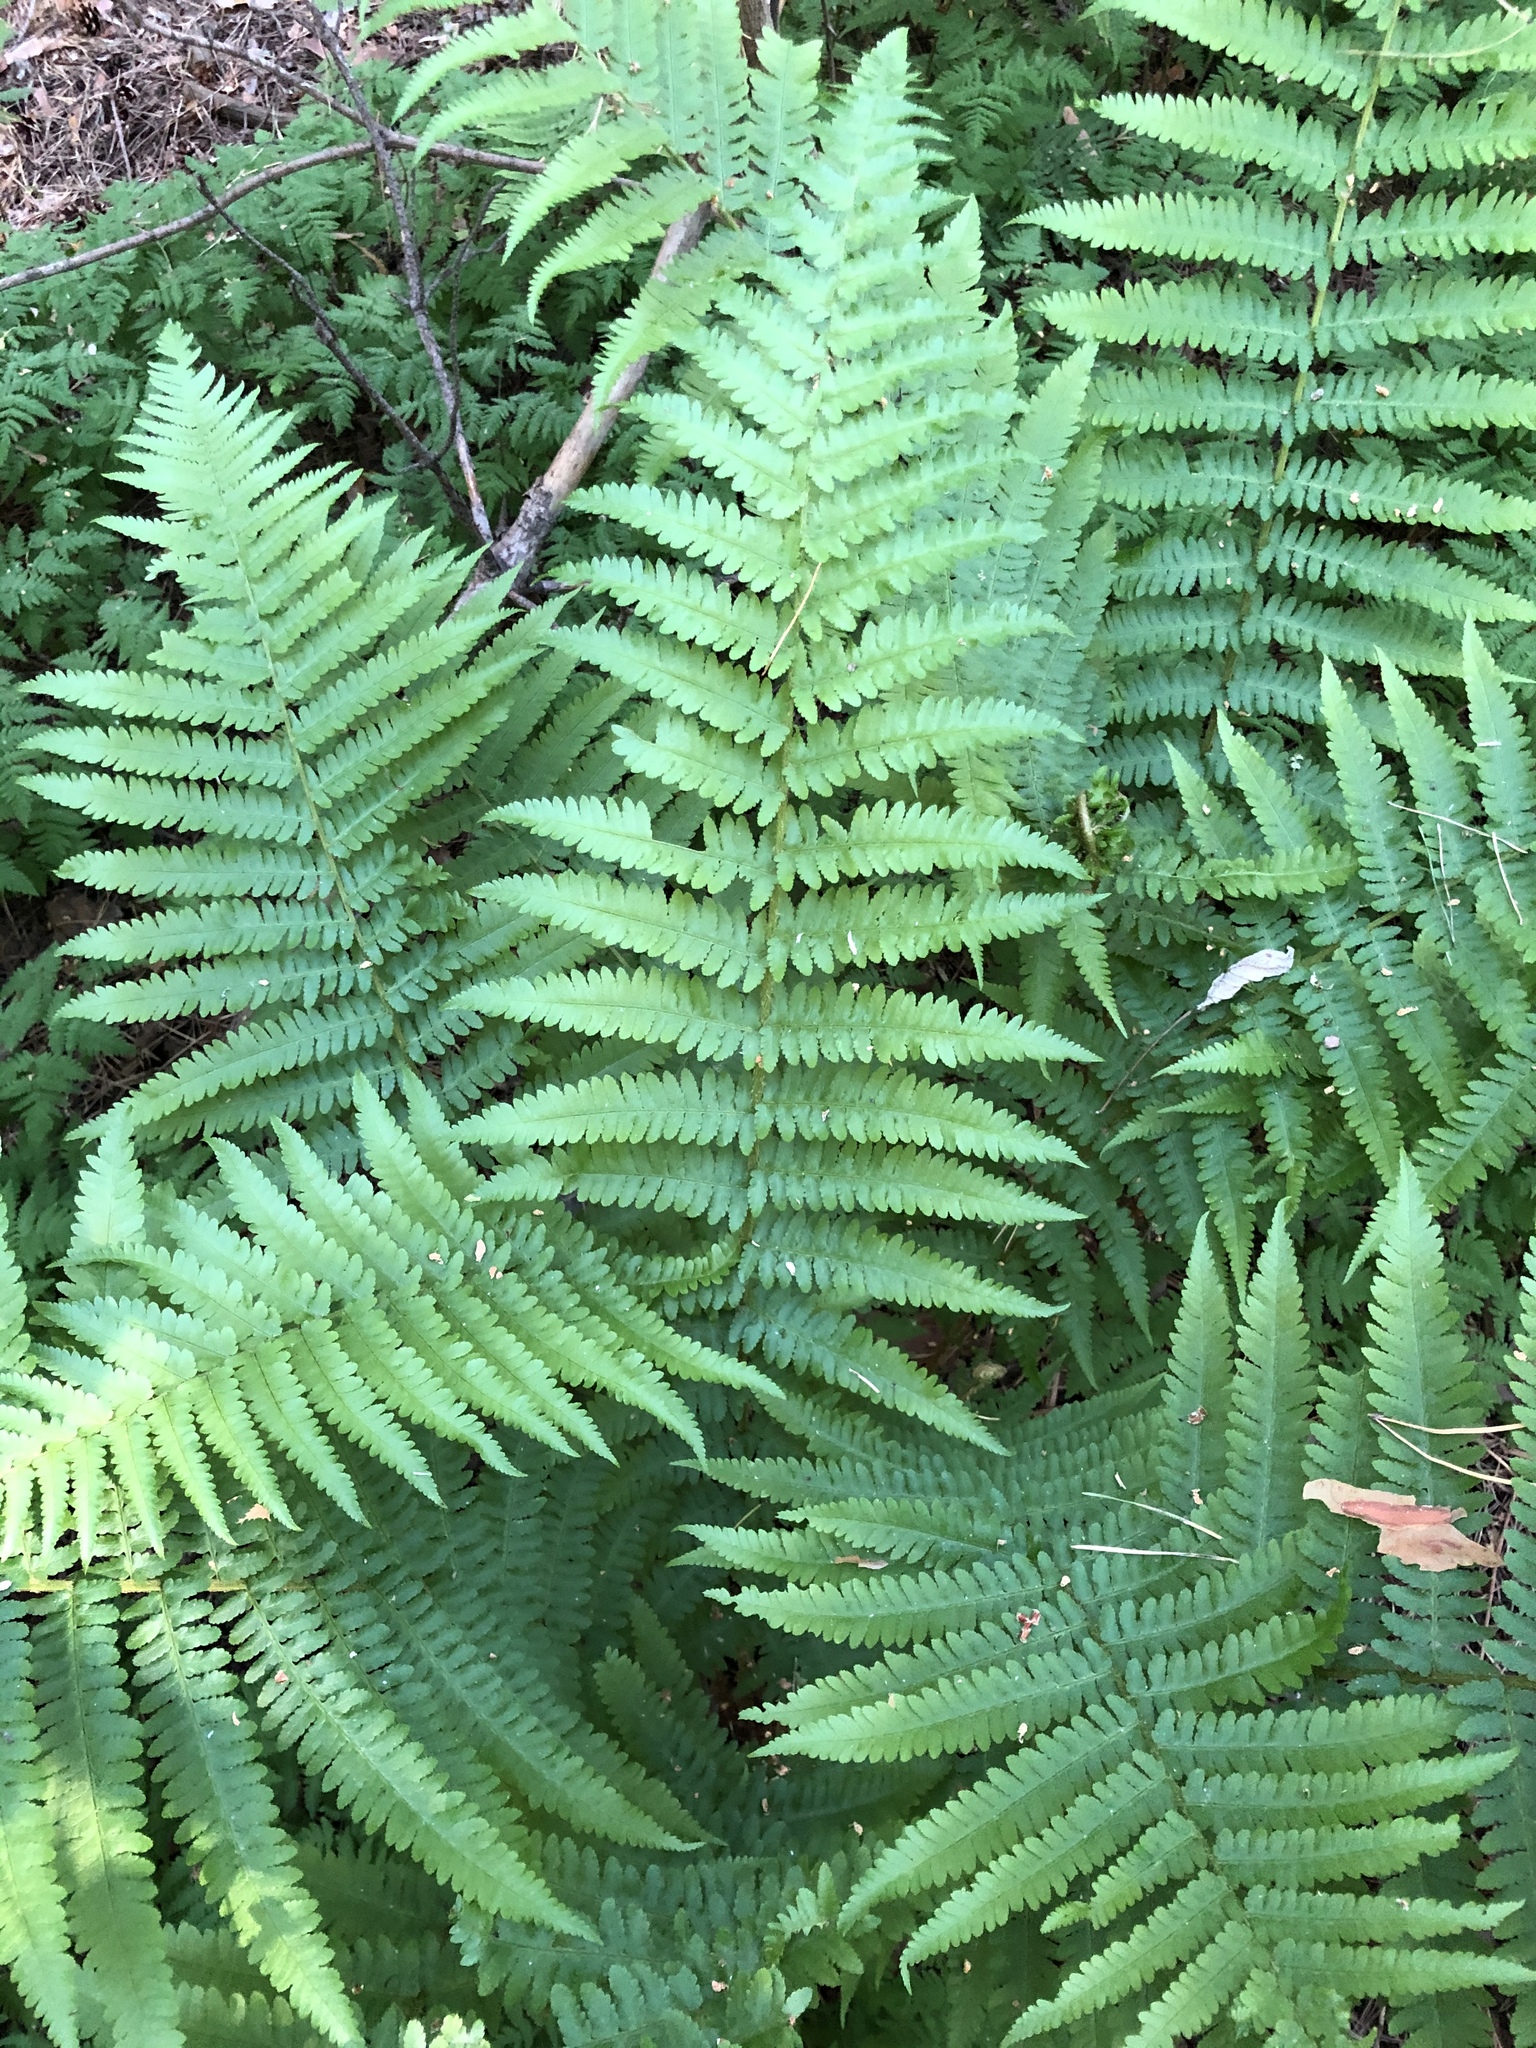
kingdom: Plantae
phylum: Tracheophyta
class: Polypodiopsida
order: Polypodiales
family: Dryopteridaceae
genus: Dryopteris
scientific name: Dryopteris filix-mas
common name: Male fern
